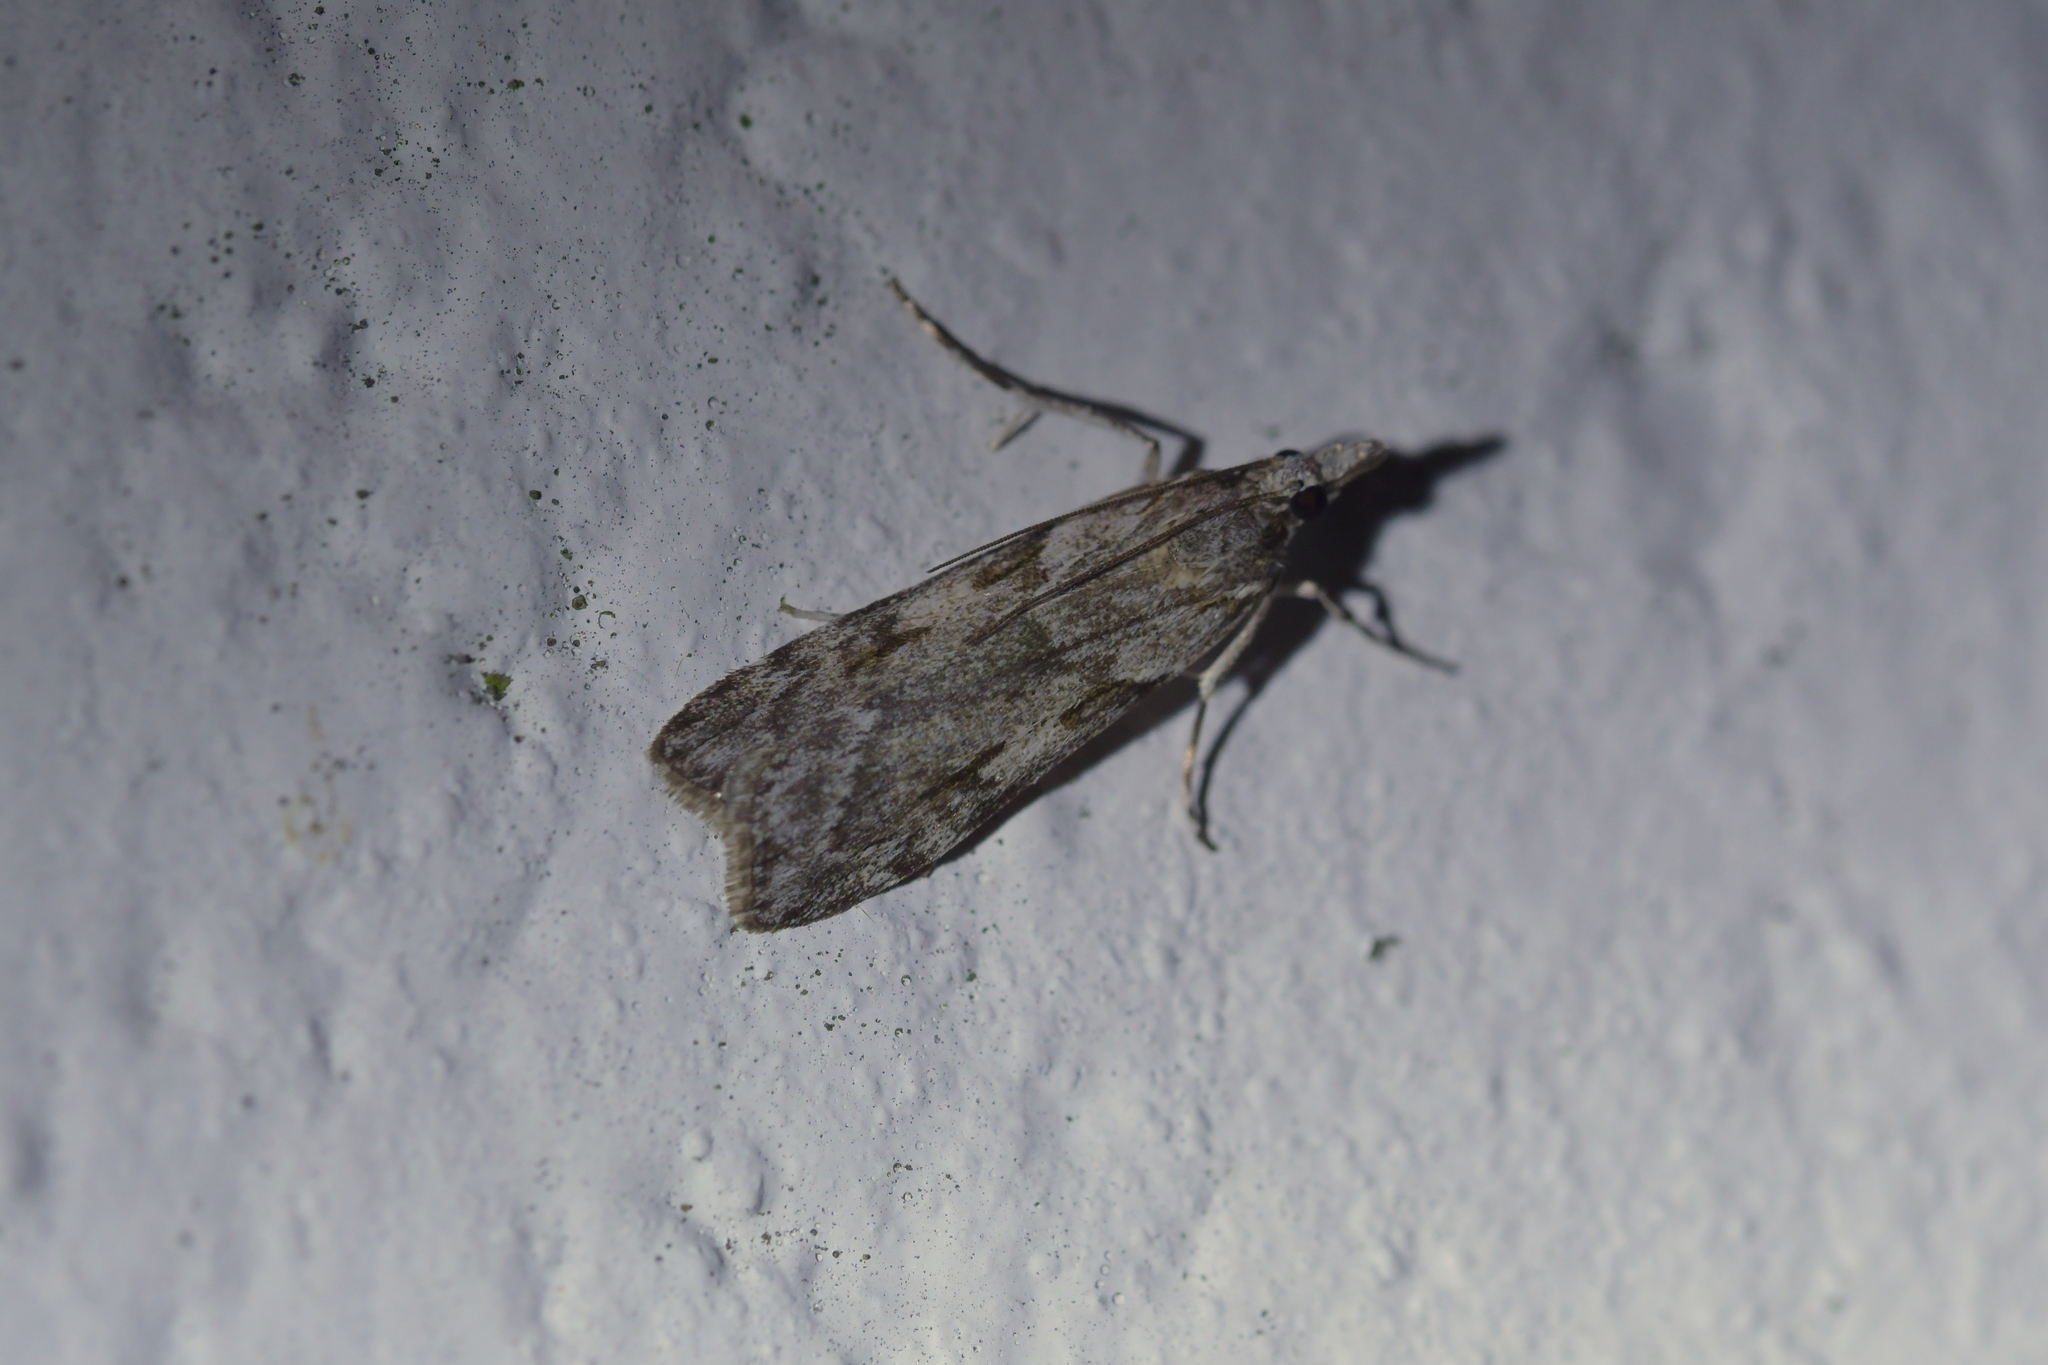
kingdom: Animalia
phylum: Arthropoda
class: Insecta
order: Lepidoptera
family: Crambidae
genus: Scoparia
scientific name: Scoparia halopis
